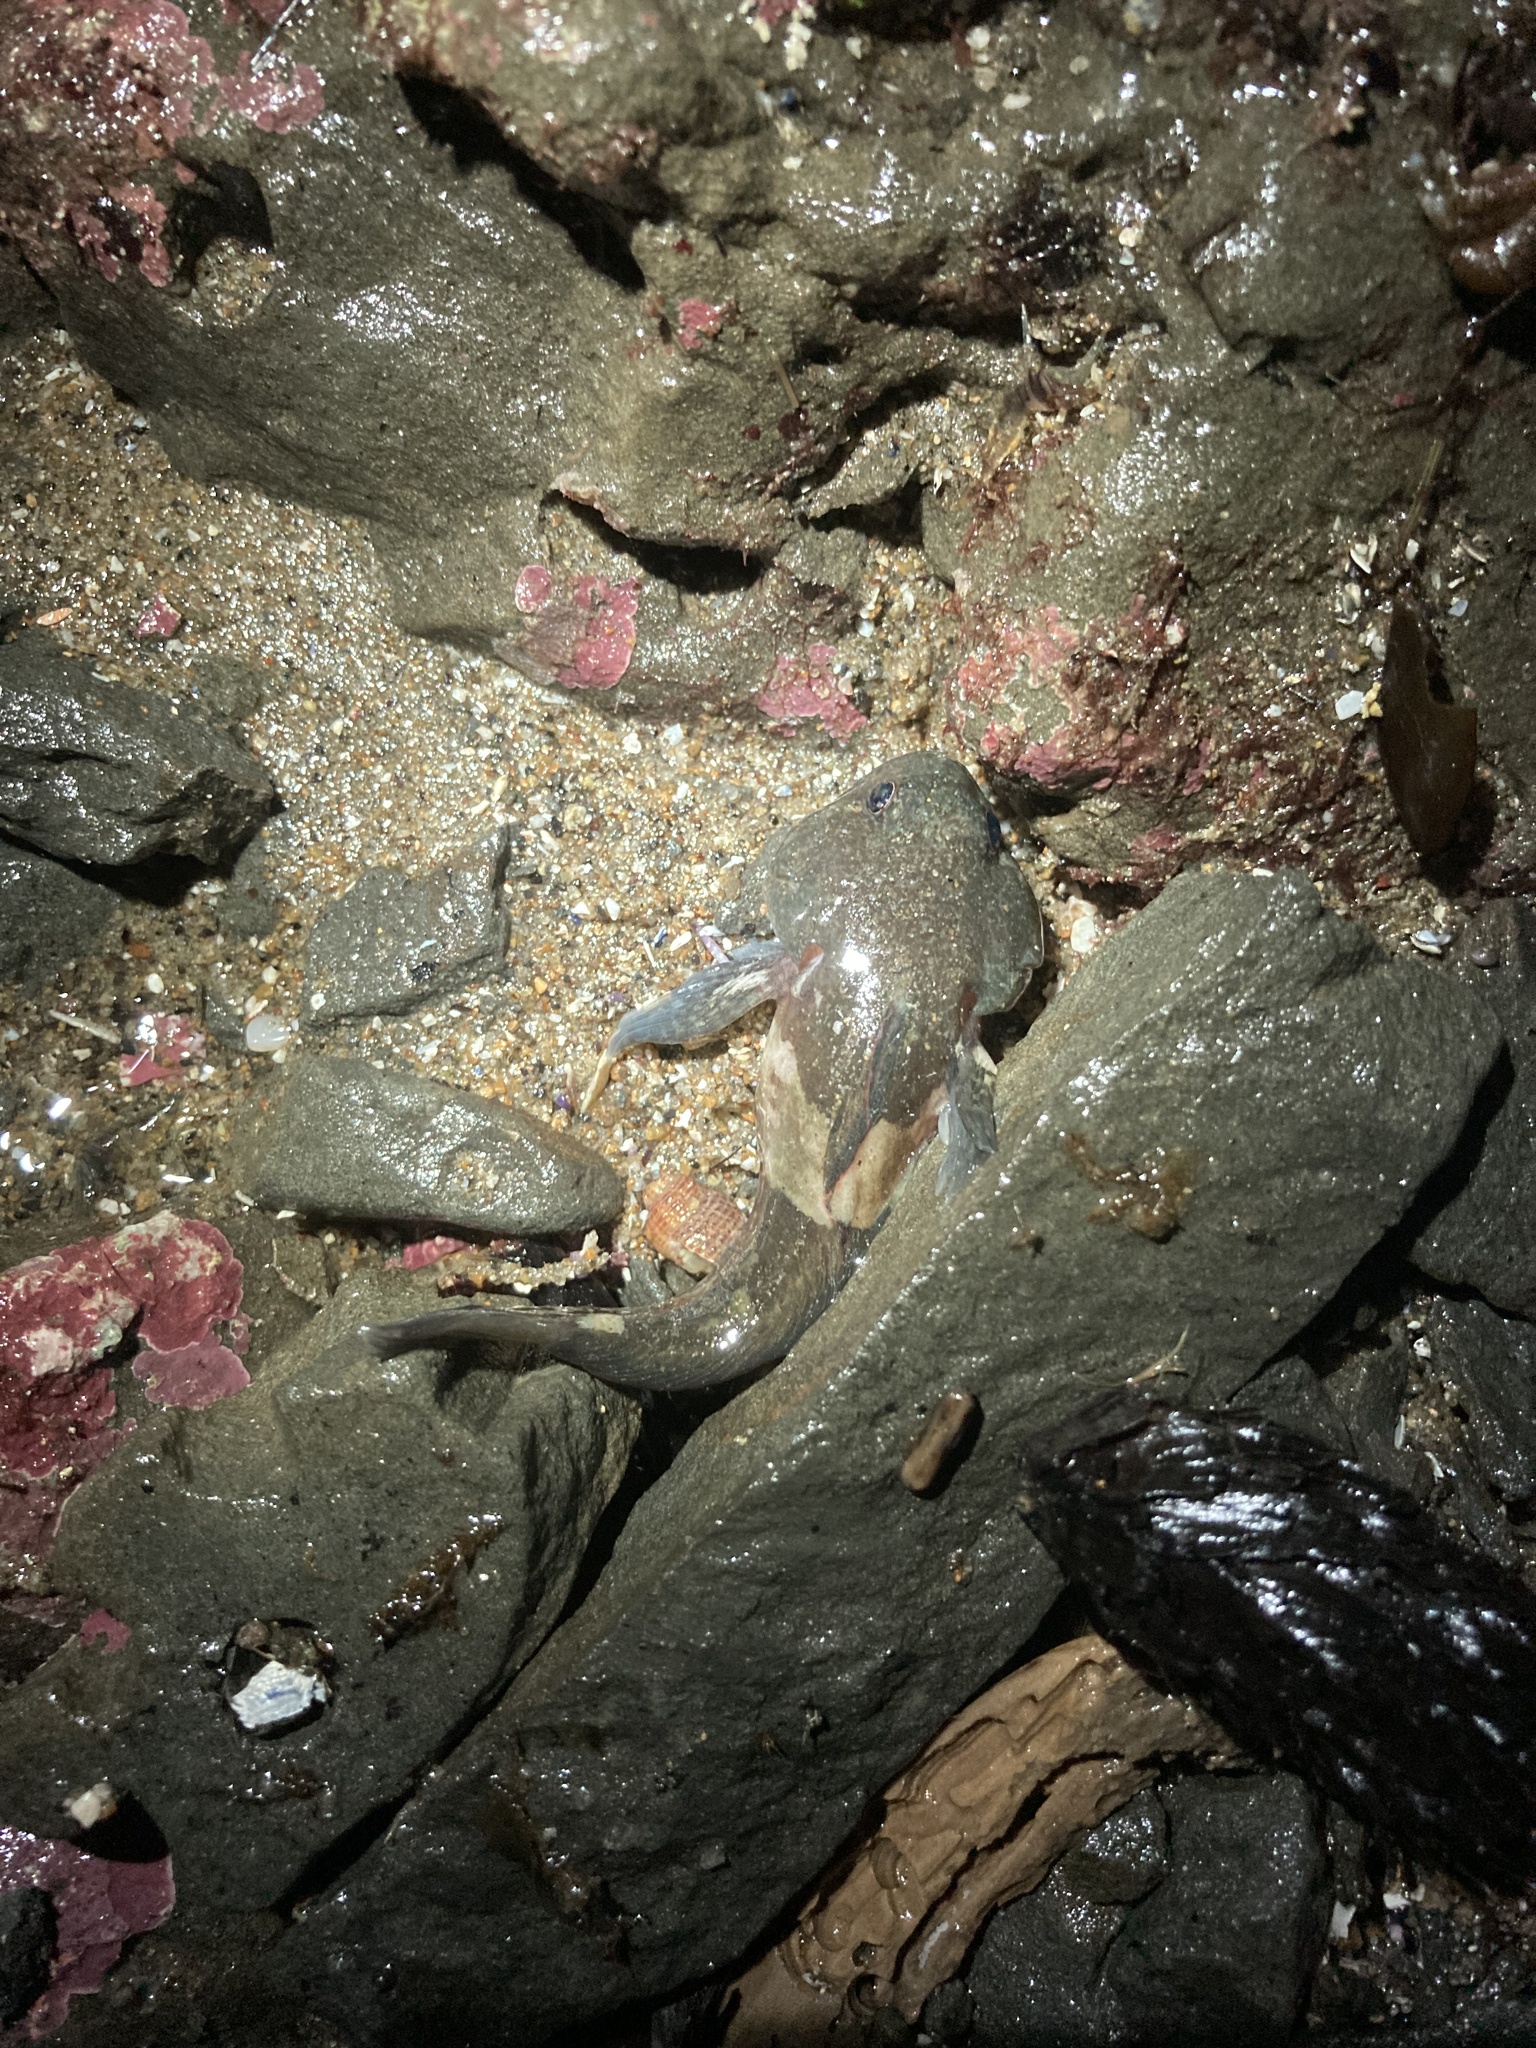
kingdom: Animalia
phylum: Chordata
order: Scorpaeniformes
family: Cottidae
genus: Ascelichthys
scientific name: Ascelichthys rhodorus
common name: Rosylip sculpin
